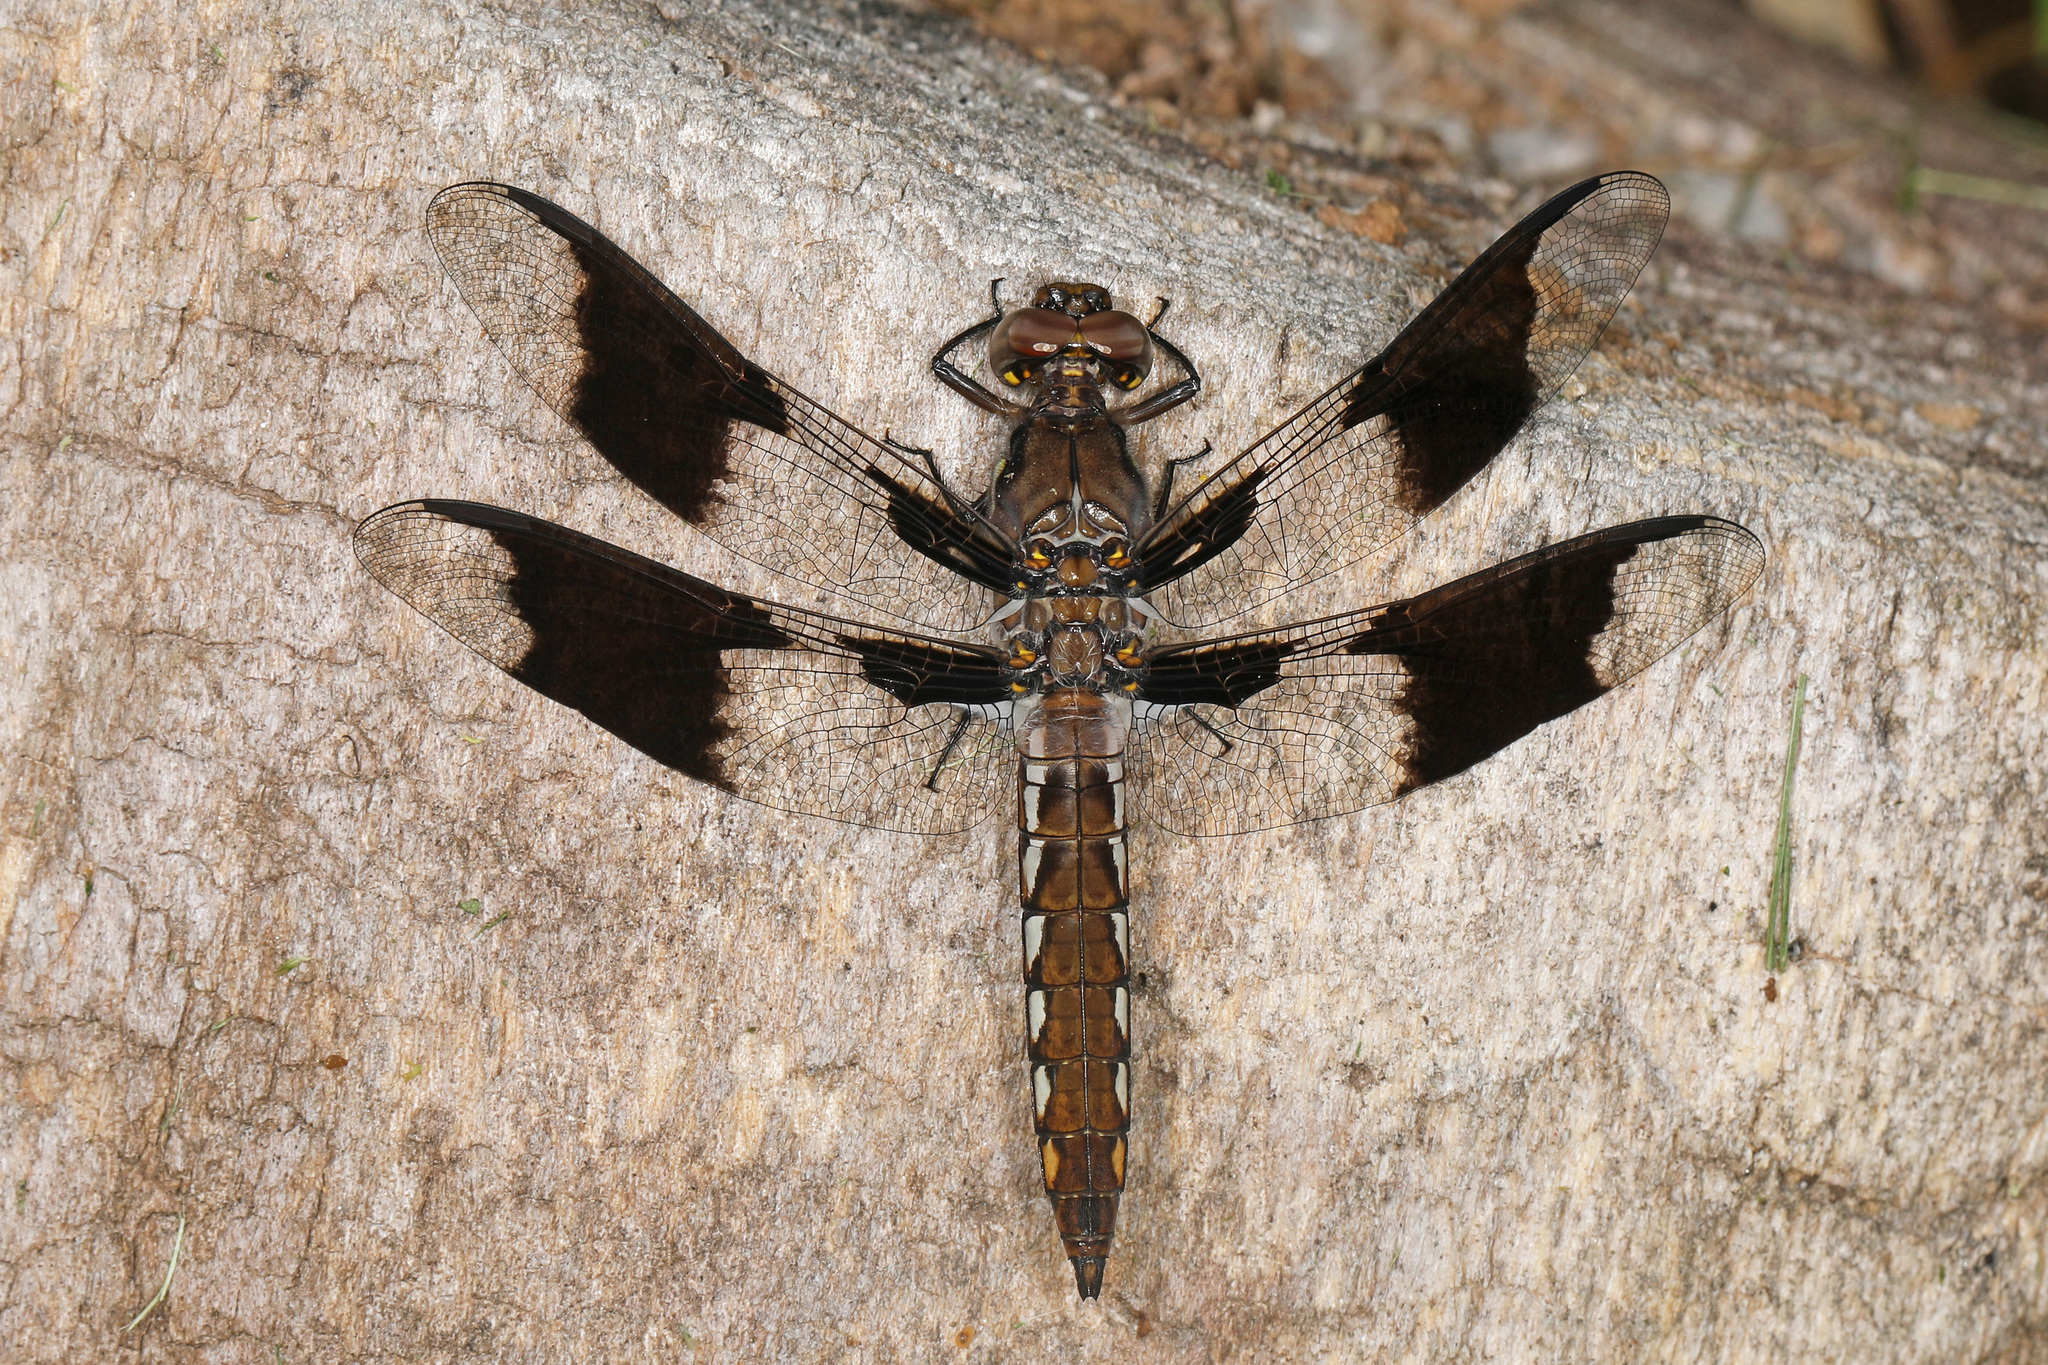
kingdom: Animalia
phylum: Arthropoda
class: Insecta
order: Odonata
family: Libellulidae
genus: Plathemis
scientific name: Plathemis lydia
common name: Common whitetail
